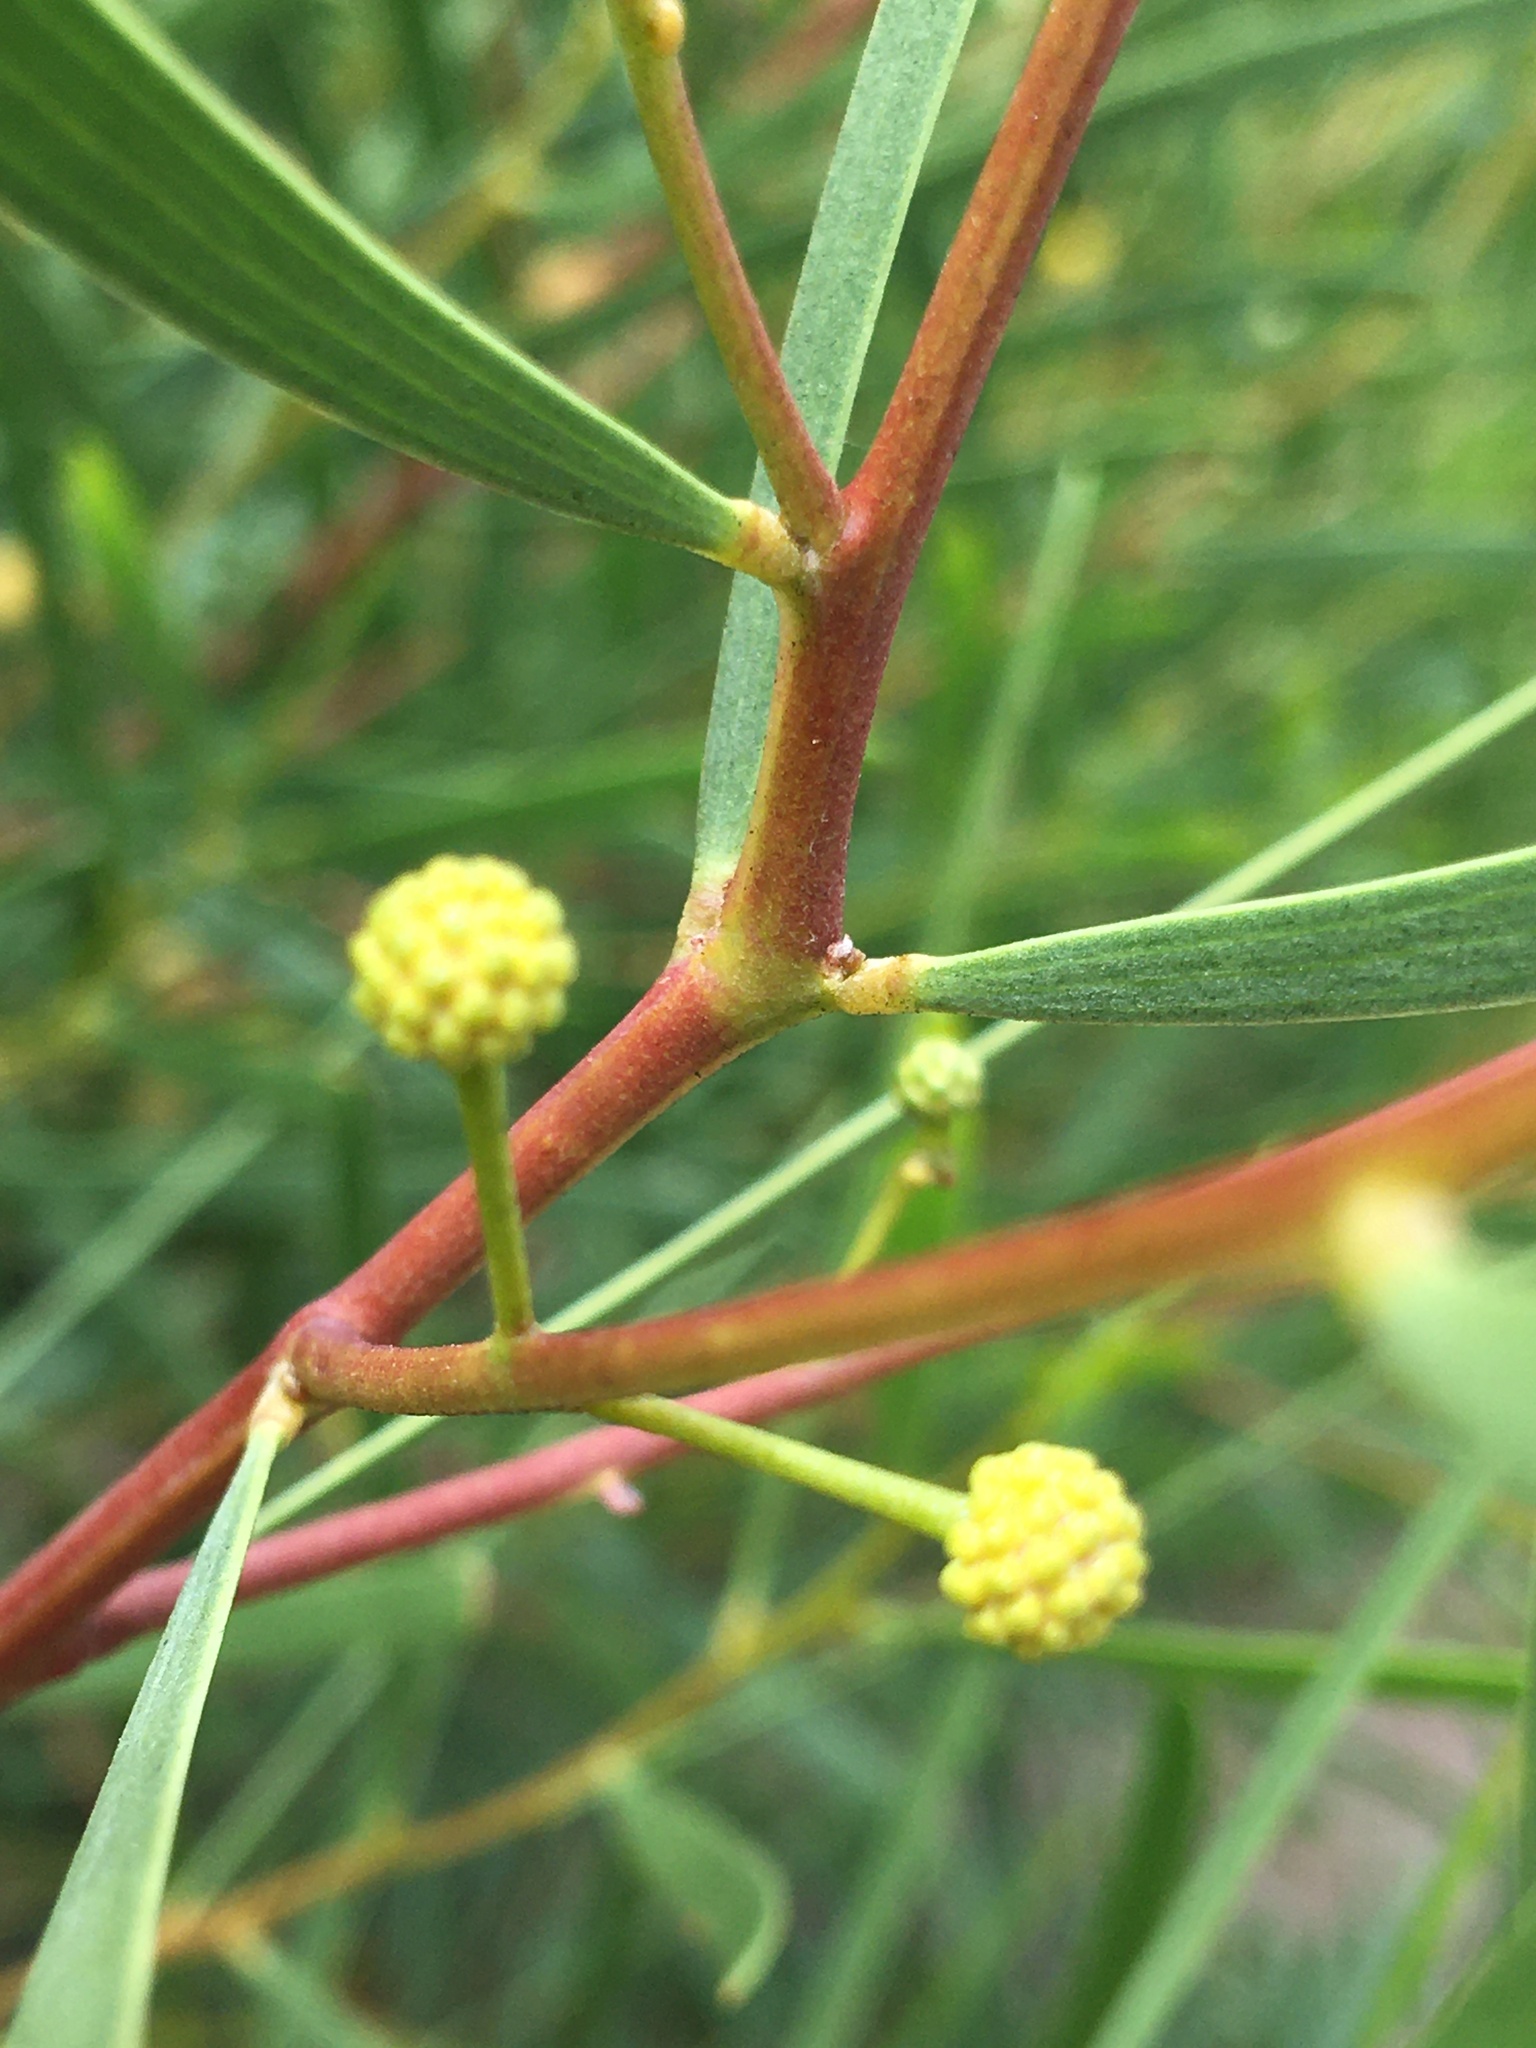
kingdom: Plantae
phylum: Tracheophyta
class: Magnoliopsida
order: Fabales
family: Fabaceae
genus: Acacia
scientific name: Acacia cyclops
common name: Coastal wattle
